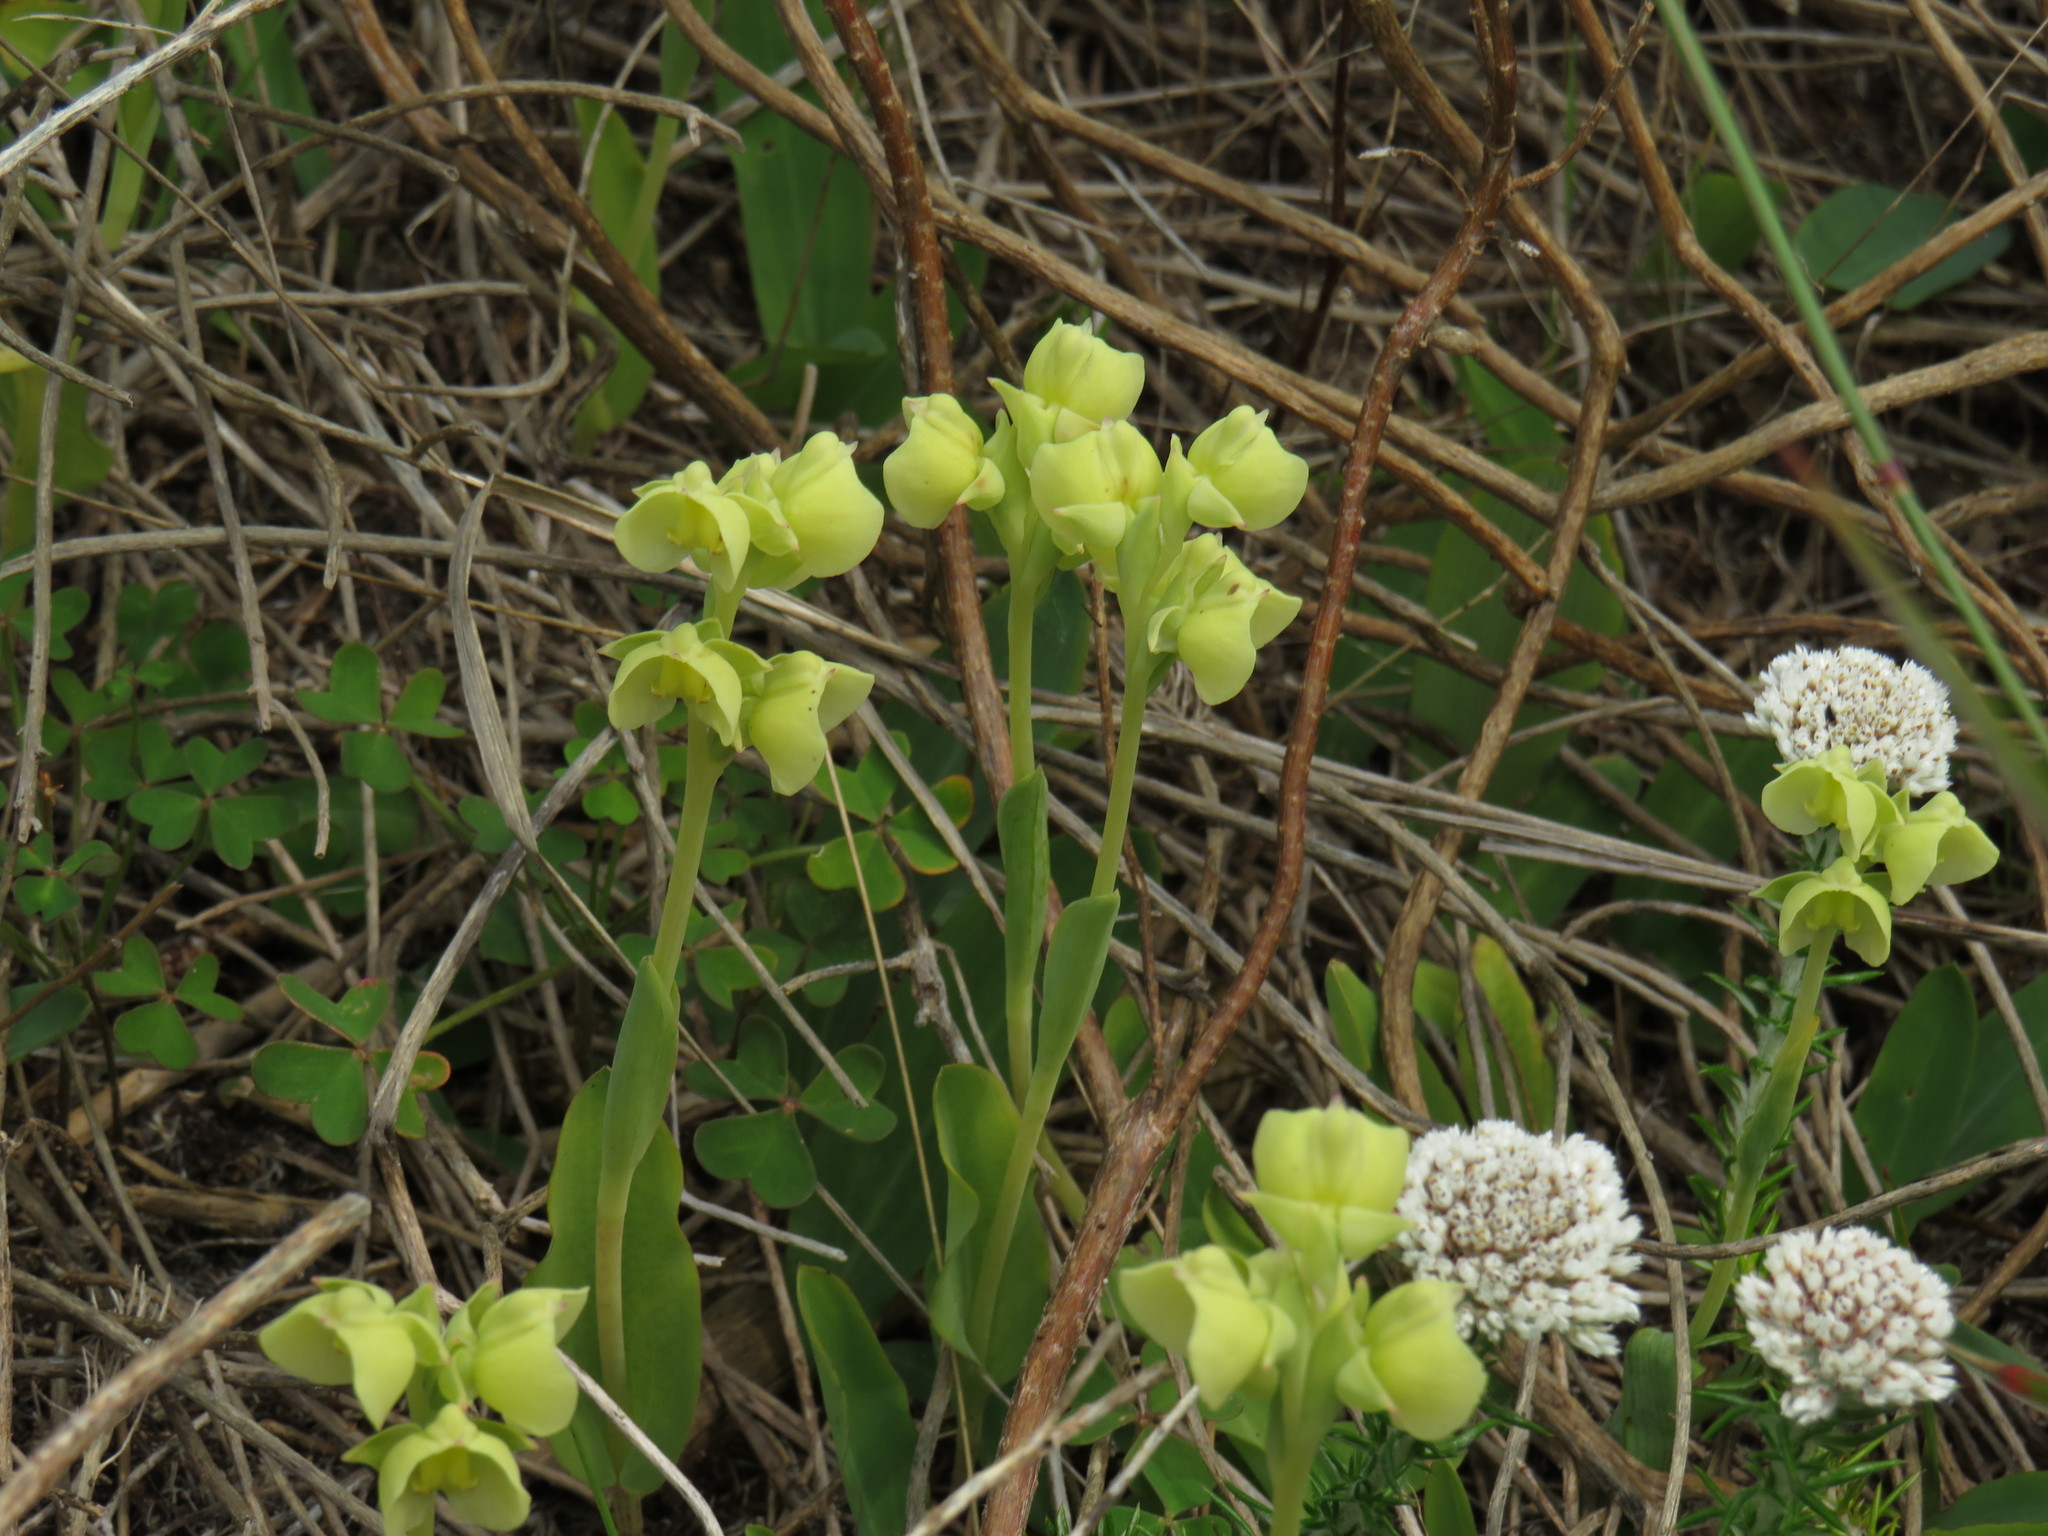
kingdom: Plantae
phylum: Tracheophyta
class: Liliopsida
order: Asparagales
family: Orchidaceae
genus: Pterygodium
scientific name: Pterygodium catholicum
